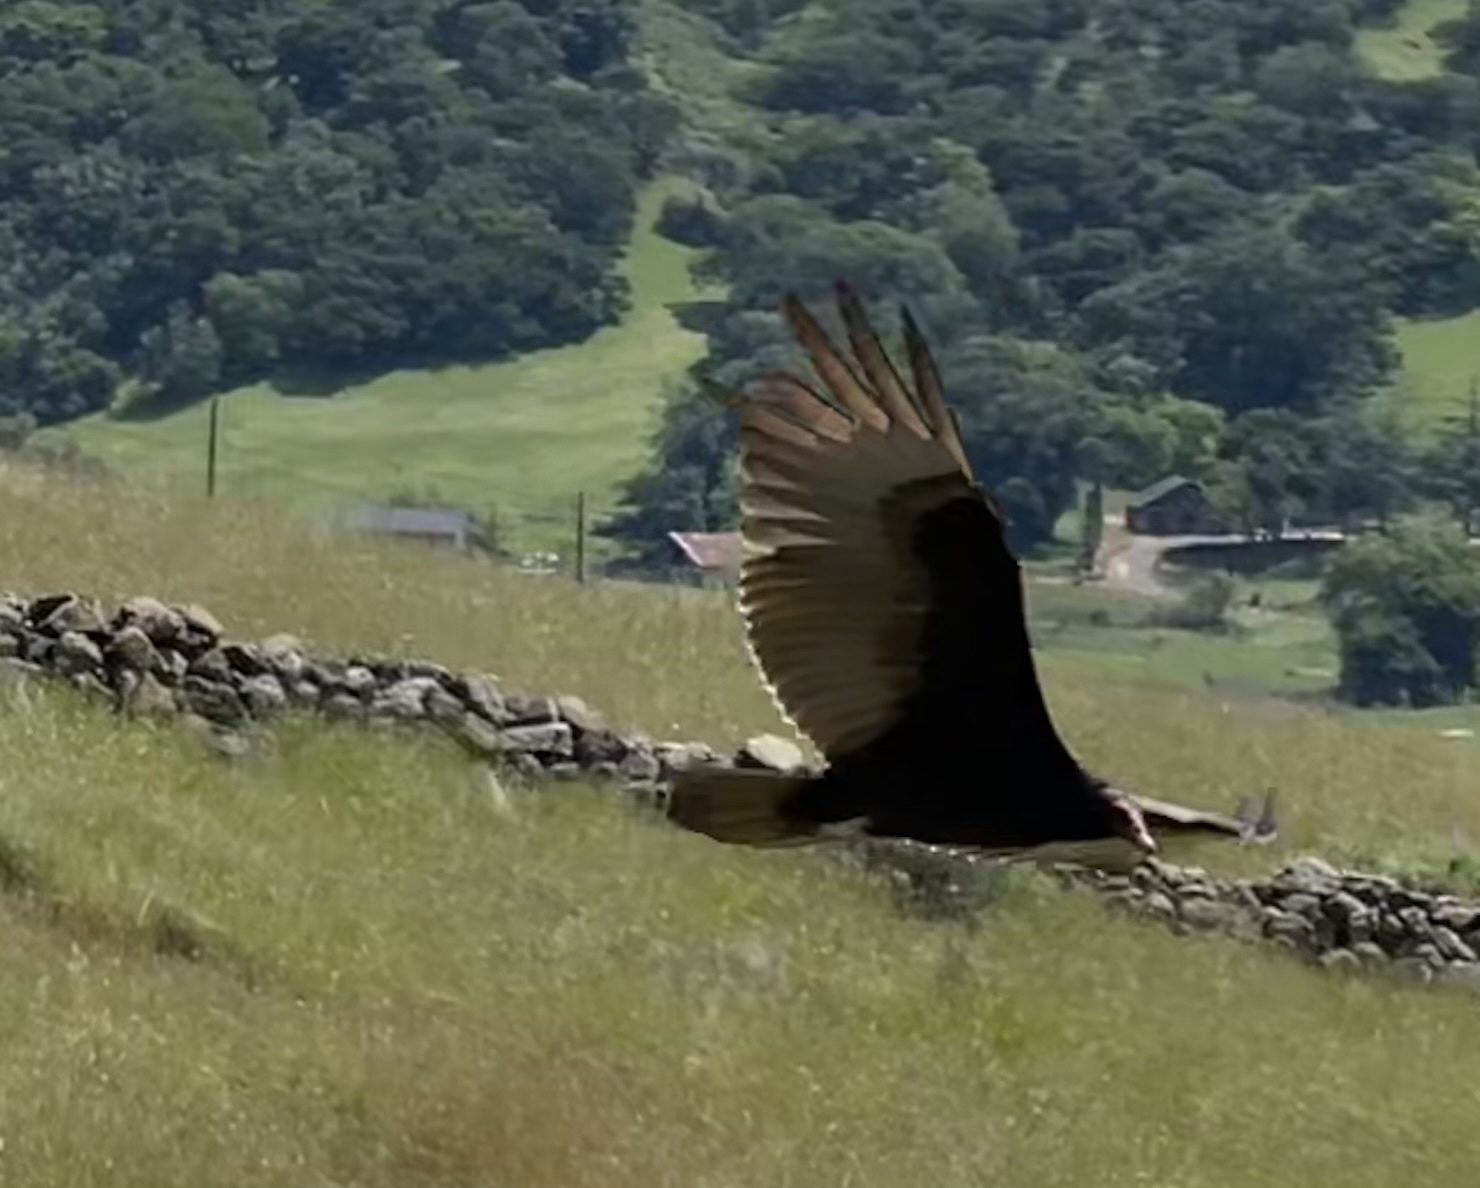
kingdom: Animalia
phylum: Chordata
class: Aves
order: Accipitriformes
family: Cathartidae
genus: Cathartes
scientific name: Cathartes aura
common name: Turkey vulture
